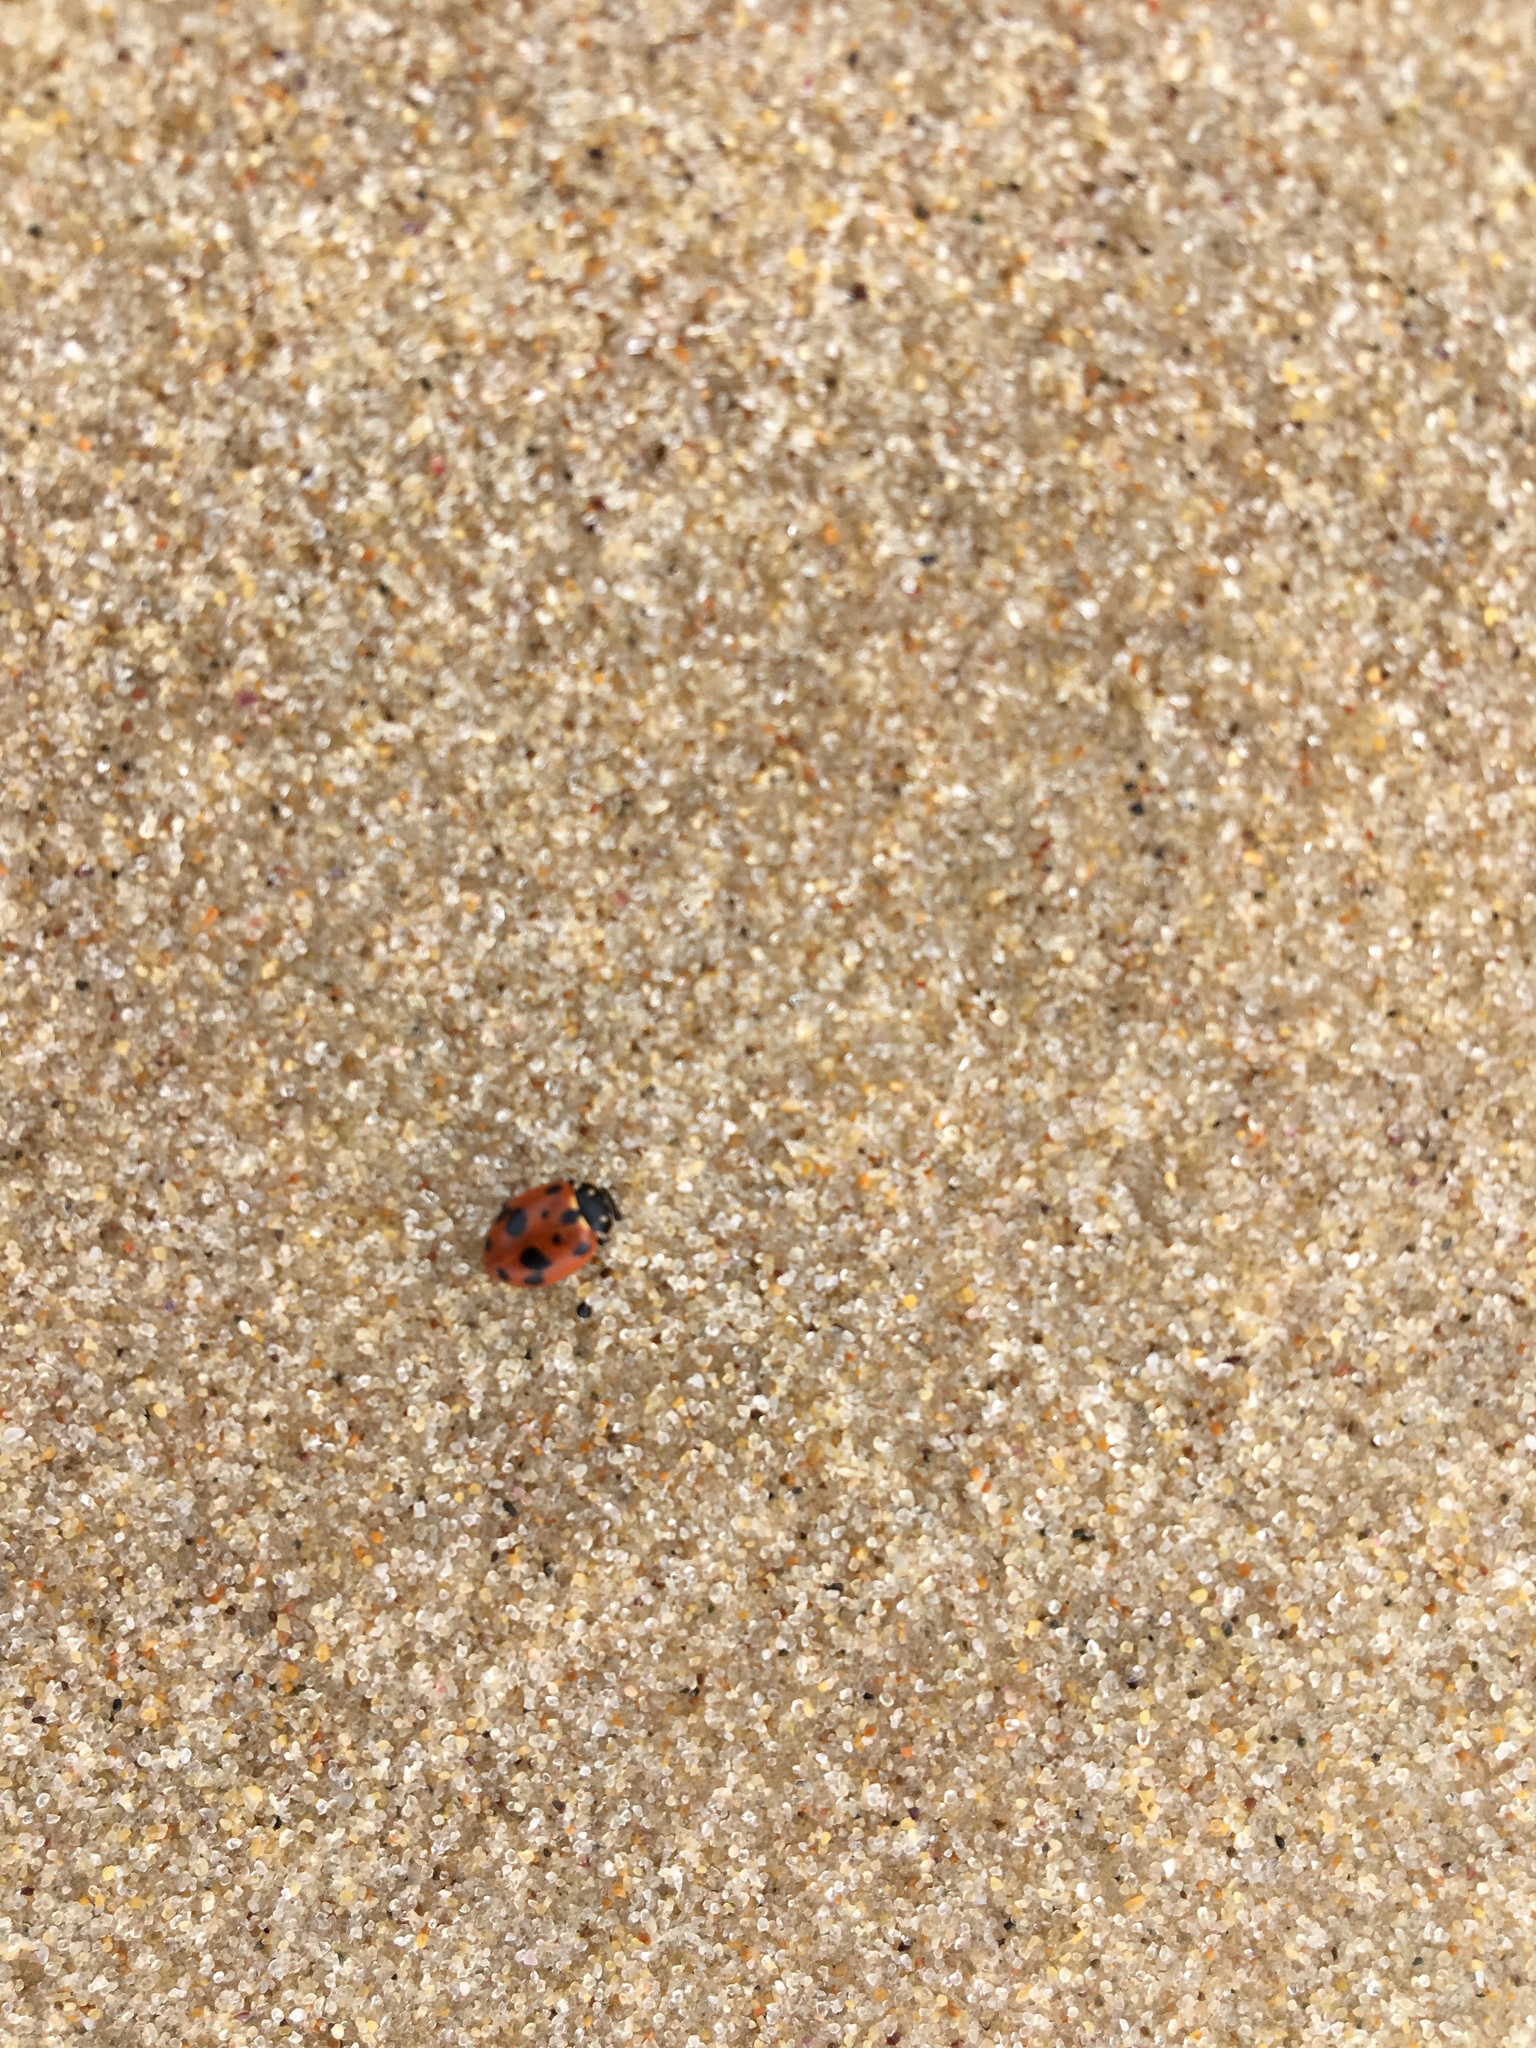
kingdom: Animalia
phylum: Arthropoda
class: Insecta
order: Coleoptera
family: Coccinellidae
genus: Hippodamia
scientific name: Hippodamia variegata
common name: Ladybird beetle
